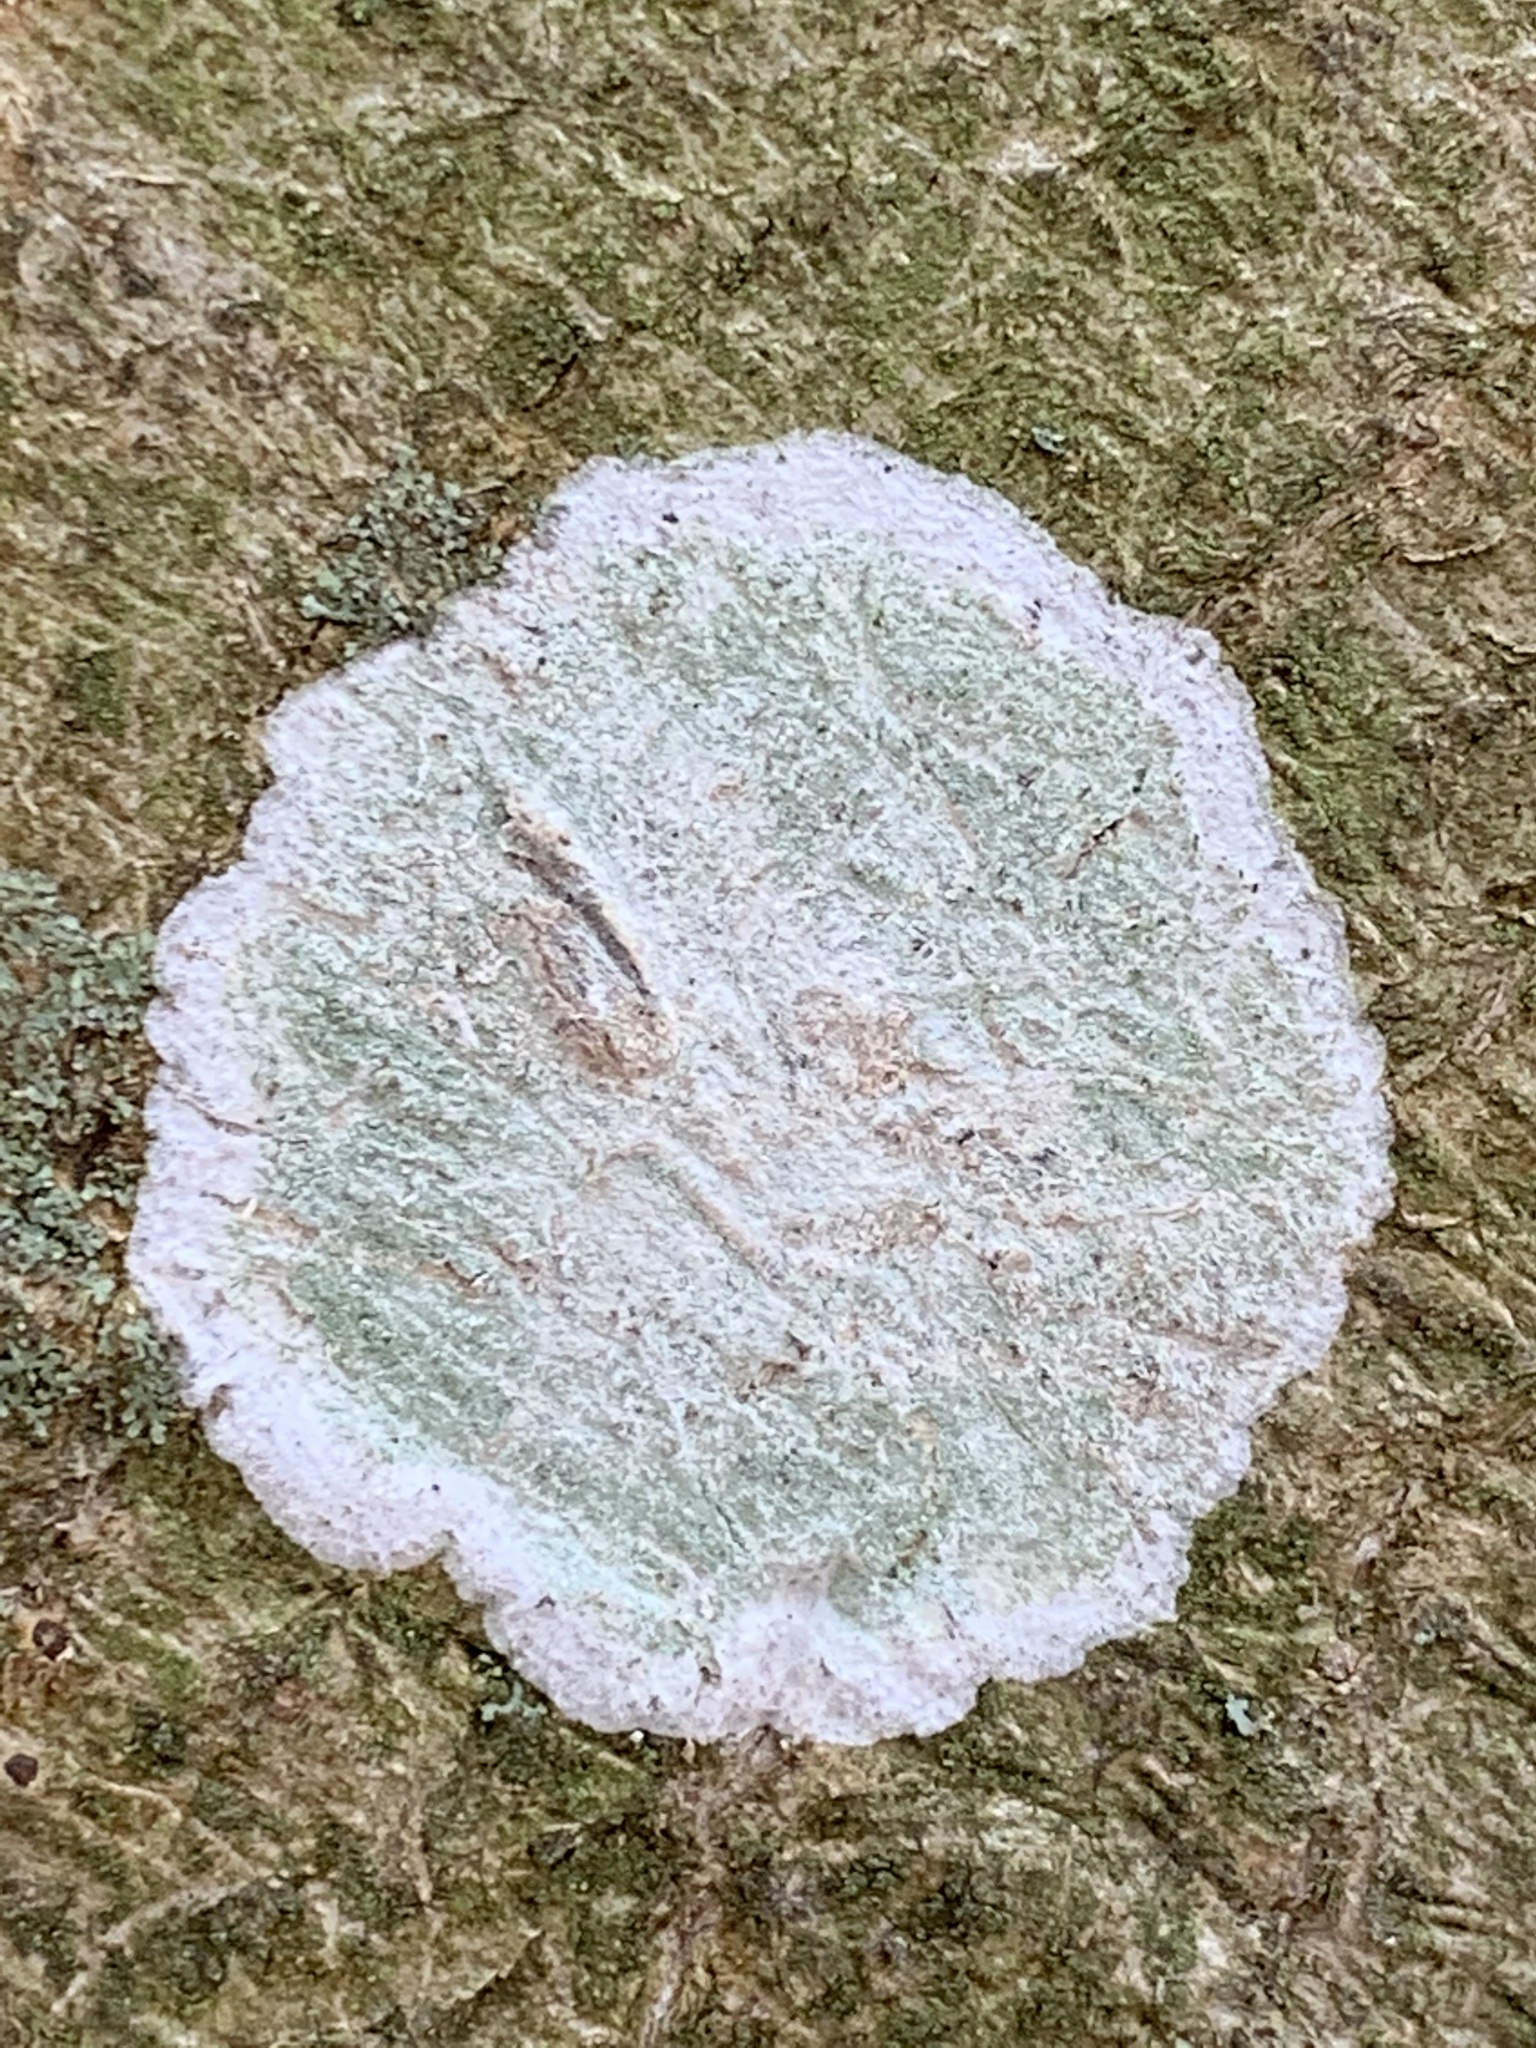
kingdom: Fungi
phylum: Ascomycota
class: Lecanoromycetes
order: Ostropales
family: Phlyctidaceae
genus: Phlyctis
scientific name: Phlyctis argena
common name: Whitewash lichen
